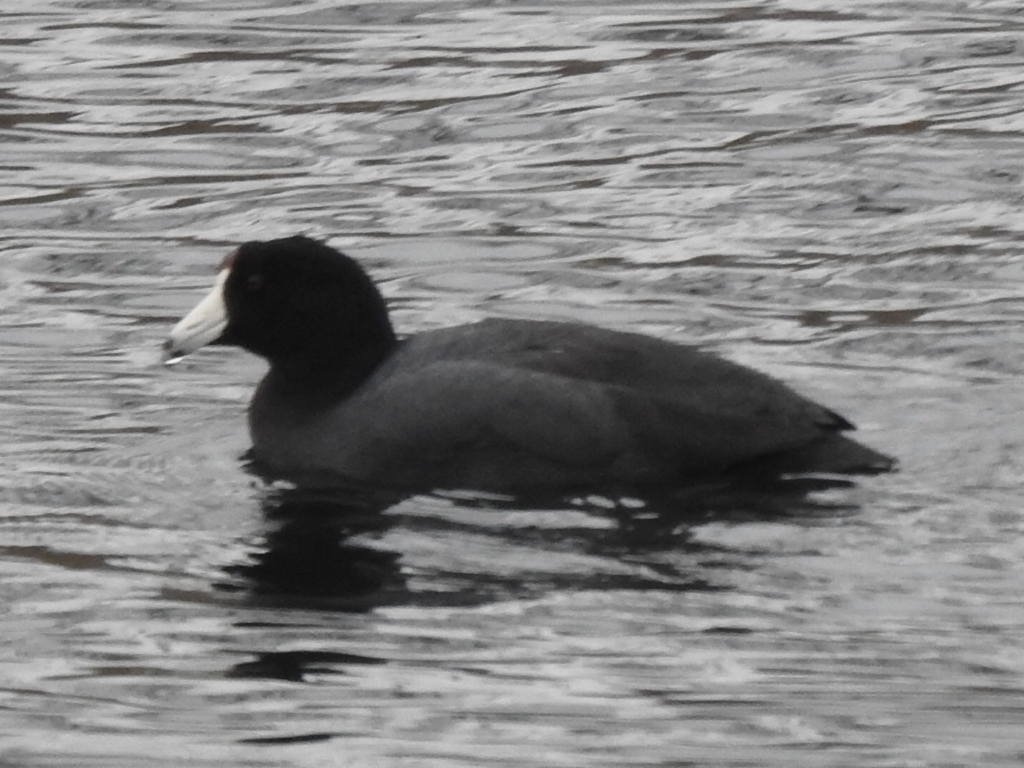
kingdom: Animalia
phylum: Chordata
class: Aves
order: Gruiformes
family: Rallidae
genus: Fulica
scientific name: Fulica americana
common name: American coot
